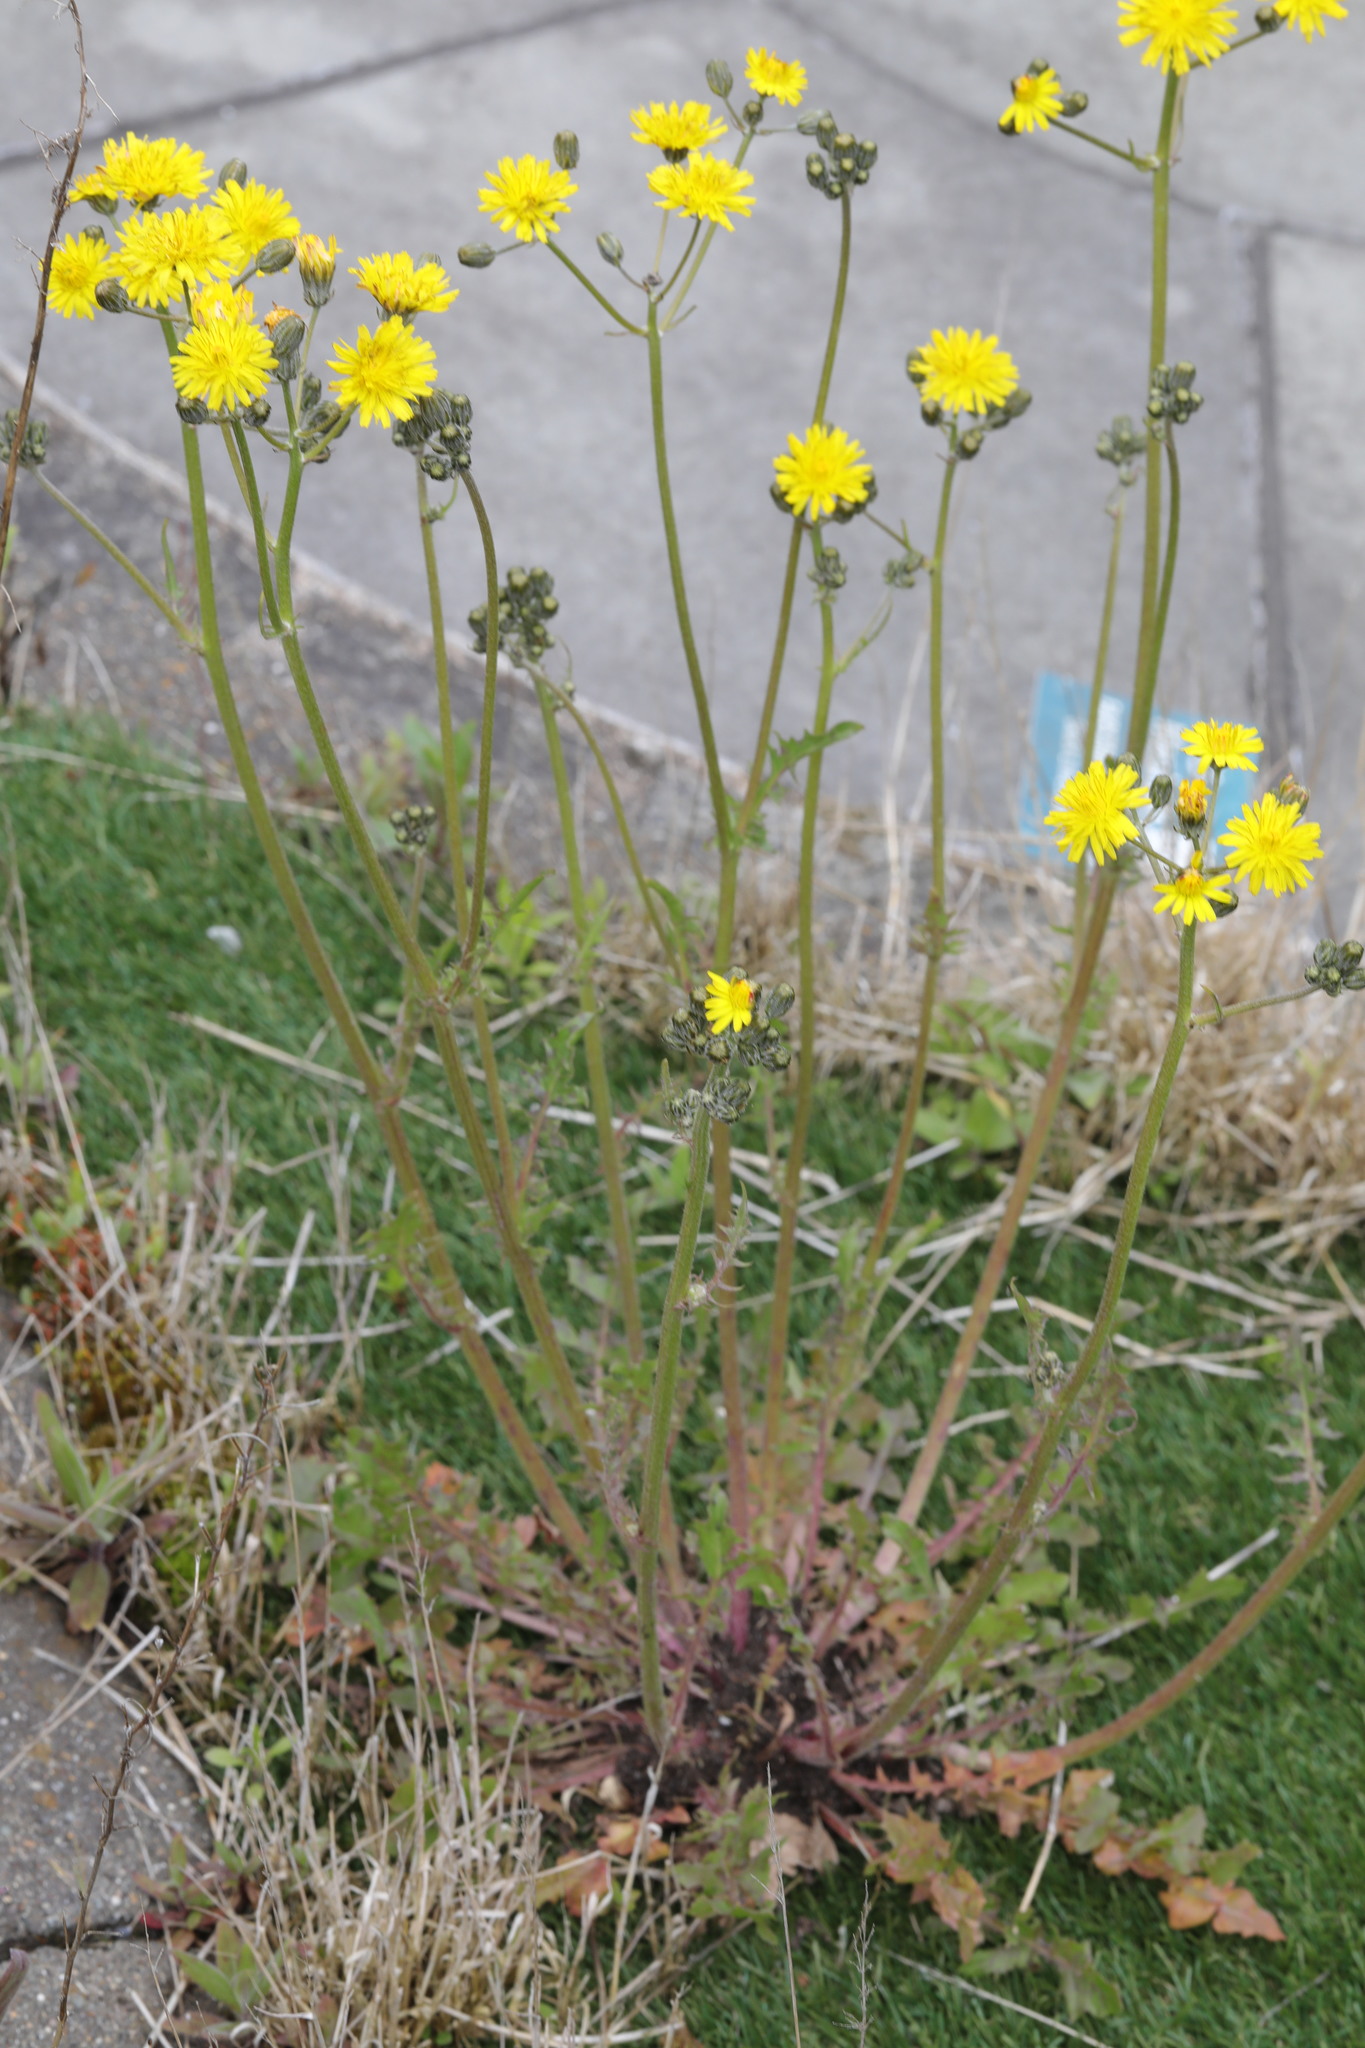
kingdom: Plantae
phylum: Tracheophyta
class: Magnoliopsida
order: Asterales
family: Asteraceae
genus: Crepis
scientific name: Crepis vesicaria
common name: Beaked hawksbeard
